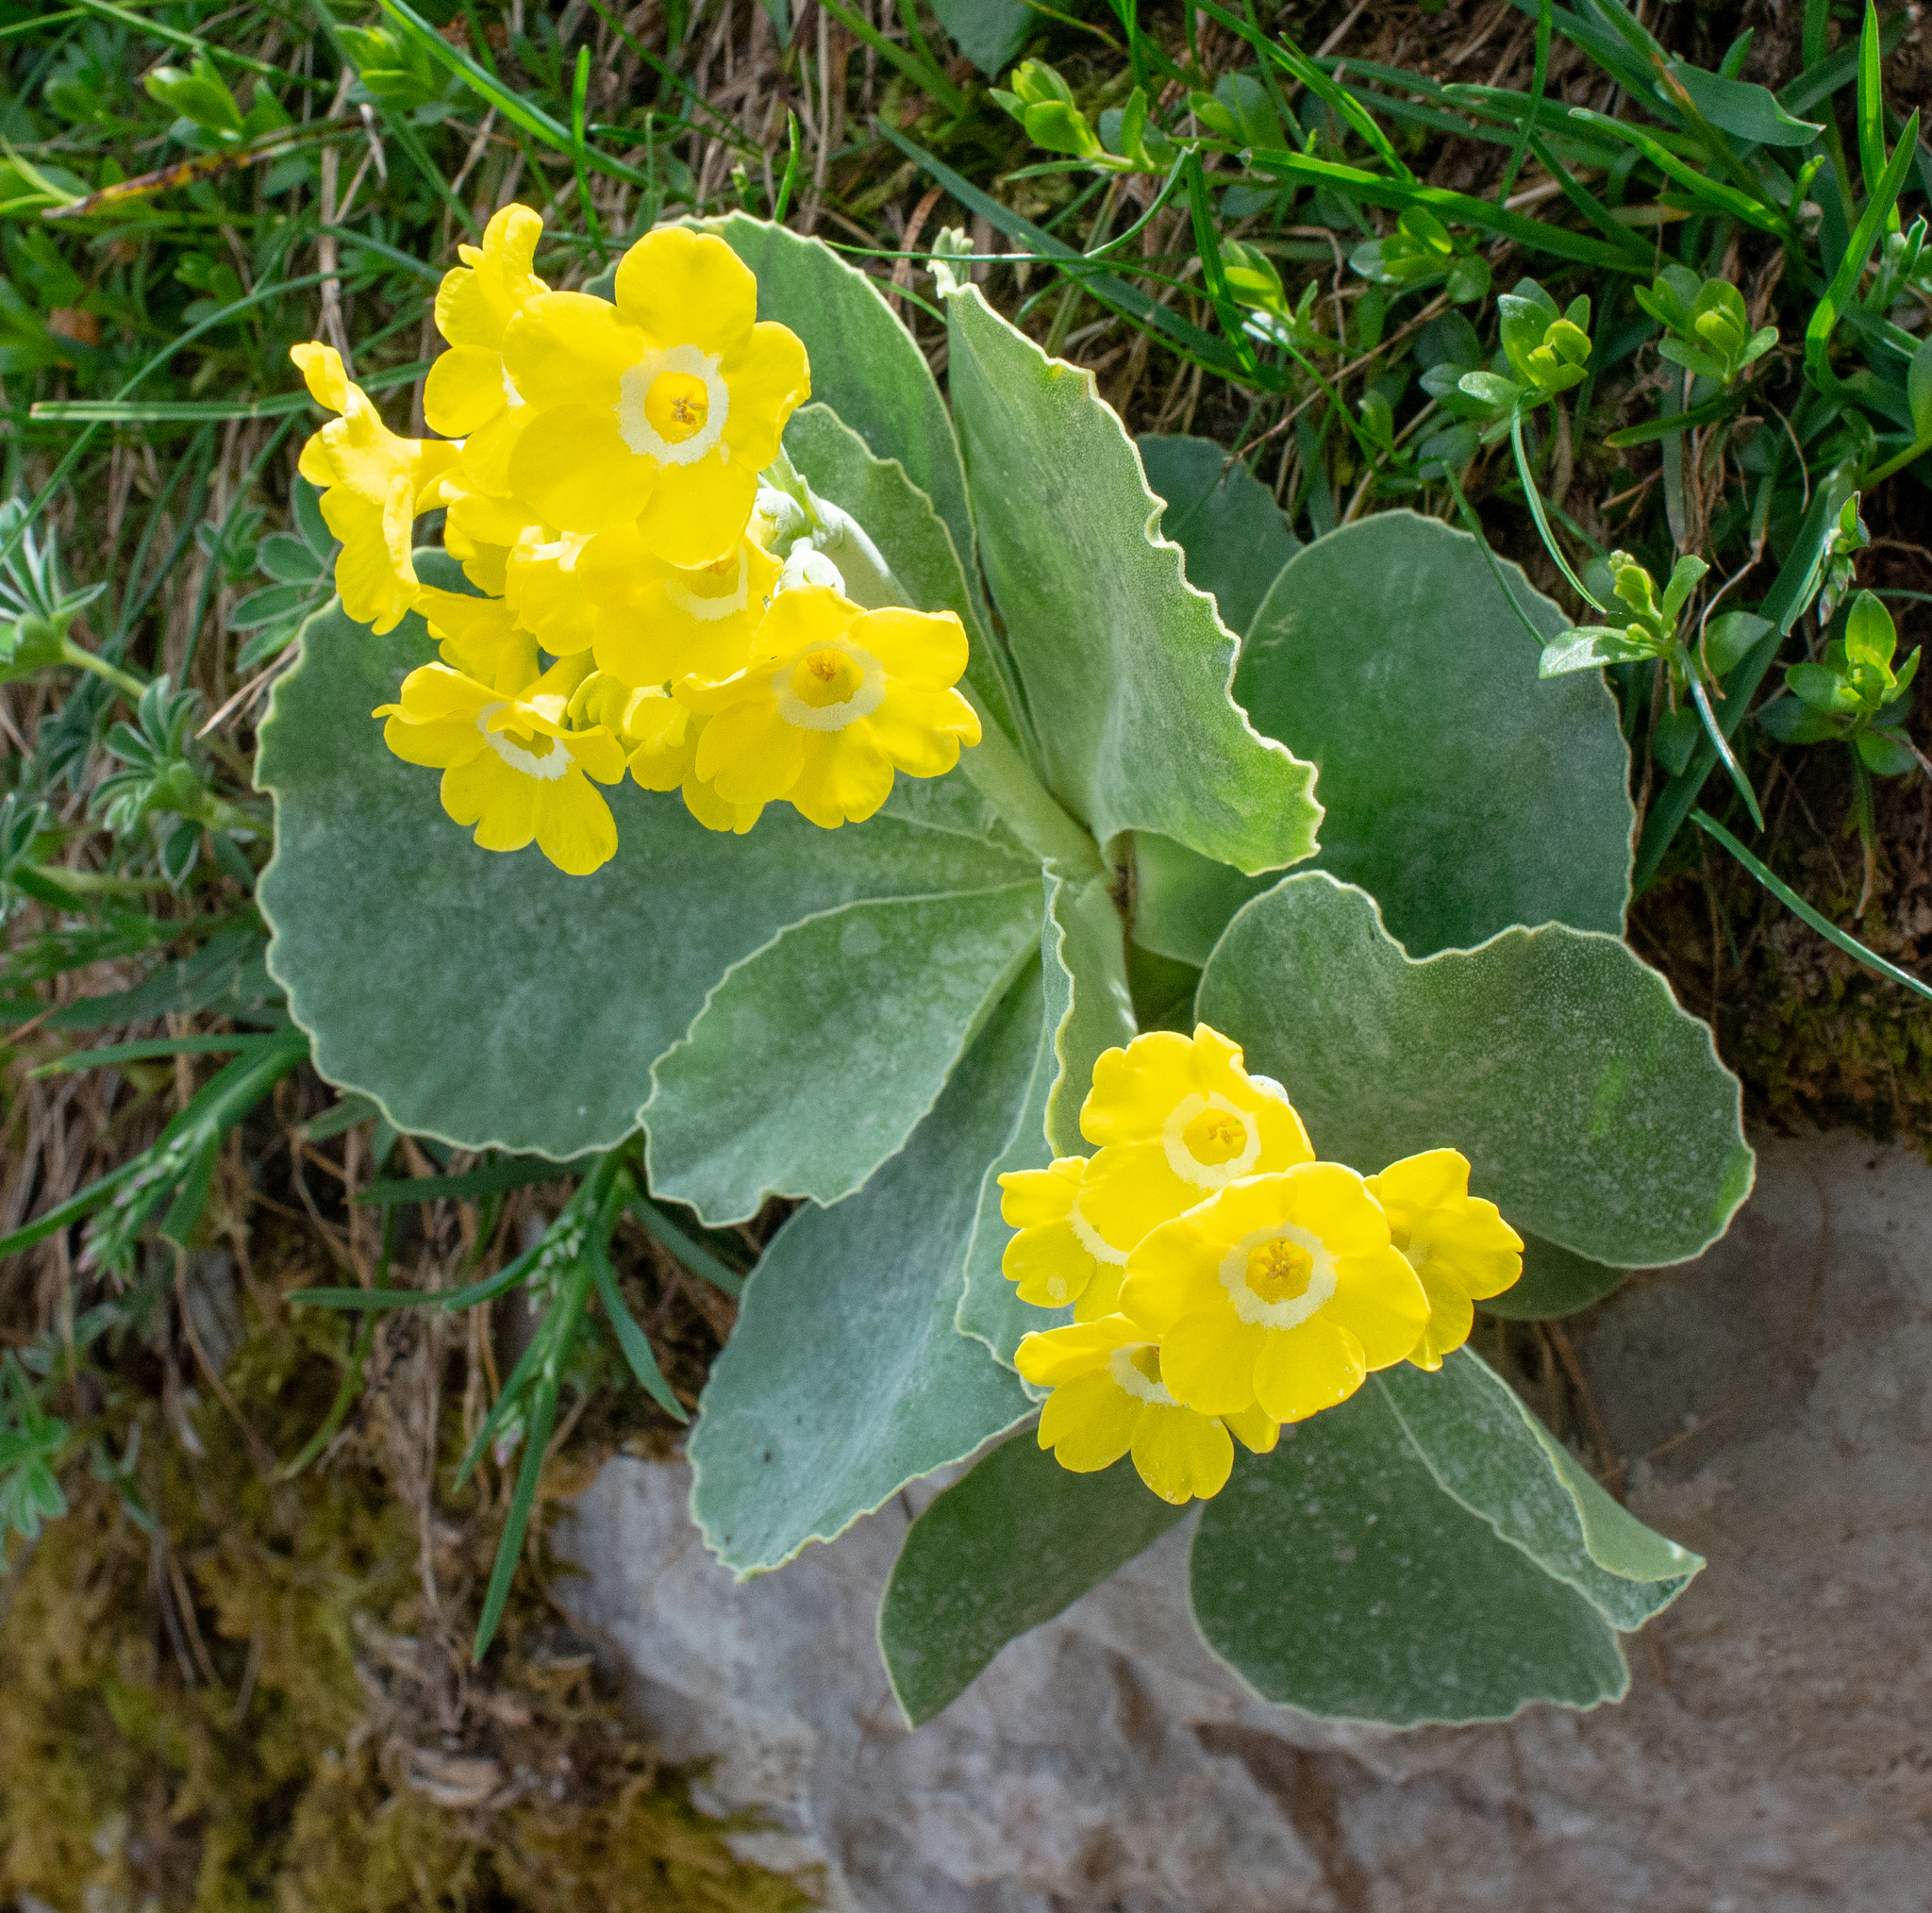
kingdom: Plantae
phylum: Tracheophyta
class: Magnoliopsida
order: Ericales
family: Primulaceae
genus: Primula
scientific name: Primula auricula
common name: Auricula
